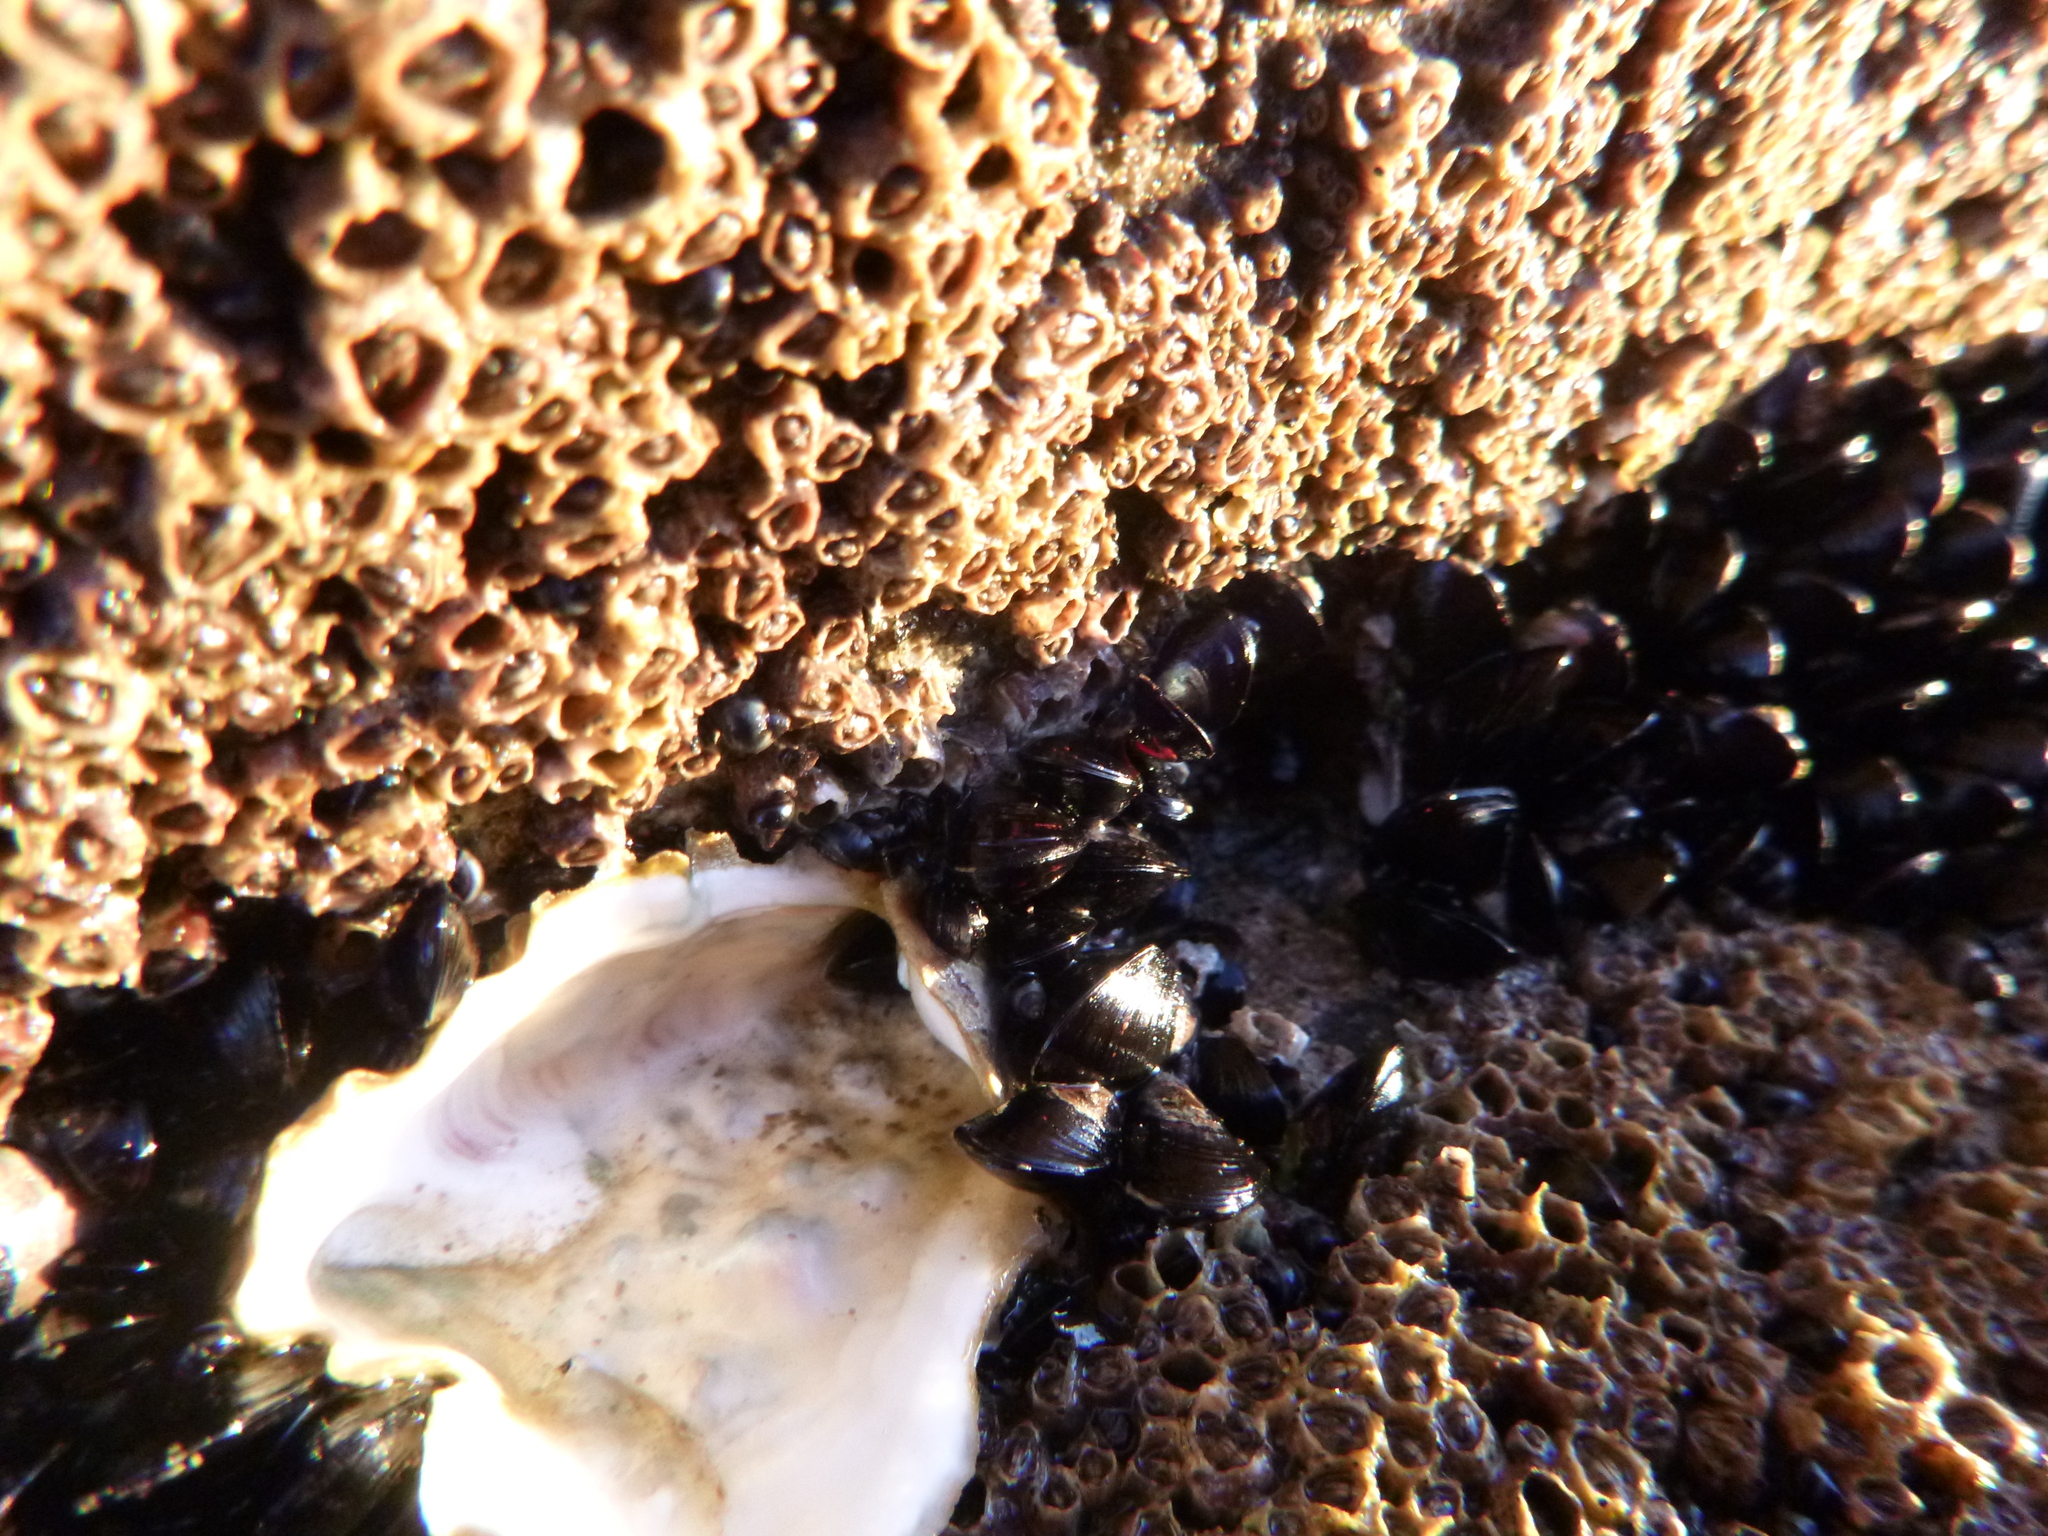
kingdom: Animalia
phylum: Arthropoda
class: Maxillopoda
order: Sessilia
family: Chthamalidae
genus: Chamaesipho
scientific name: Chamaesipho columna
